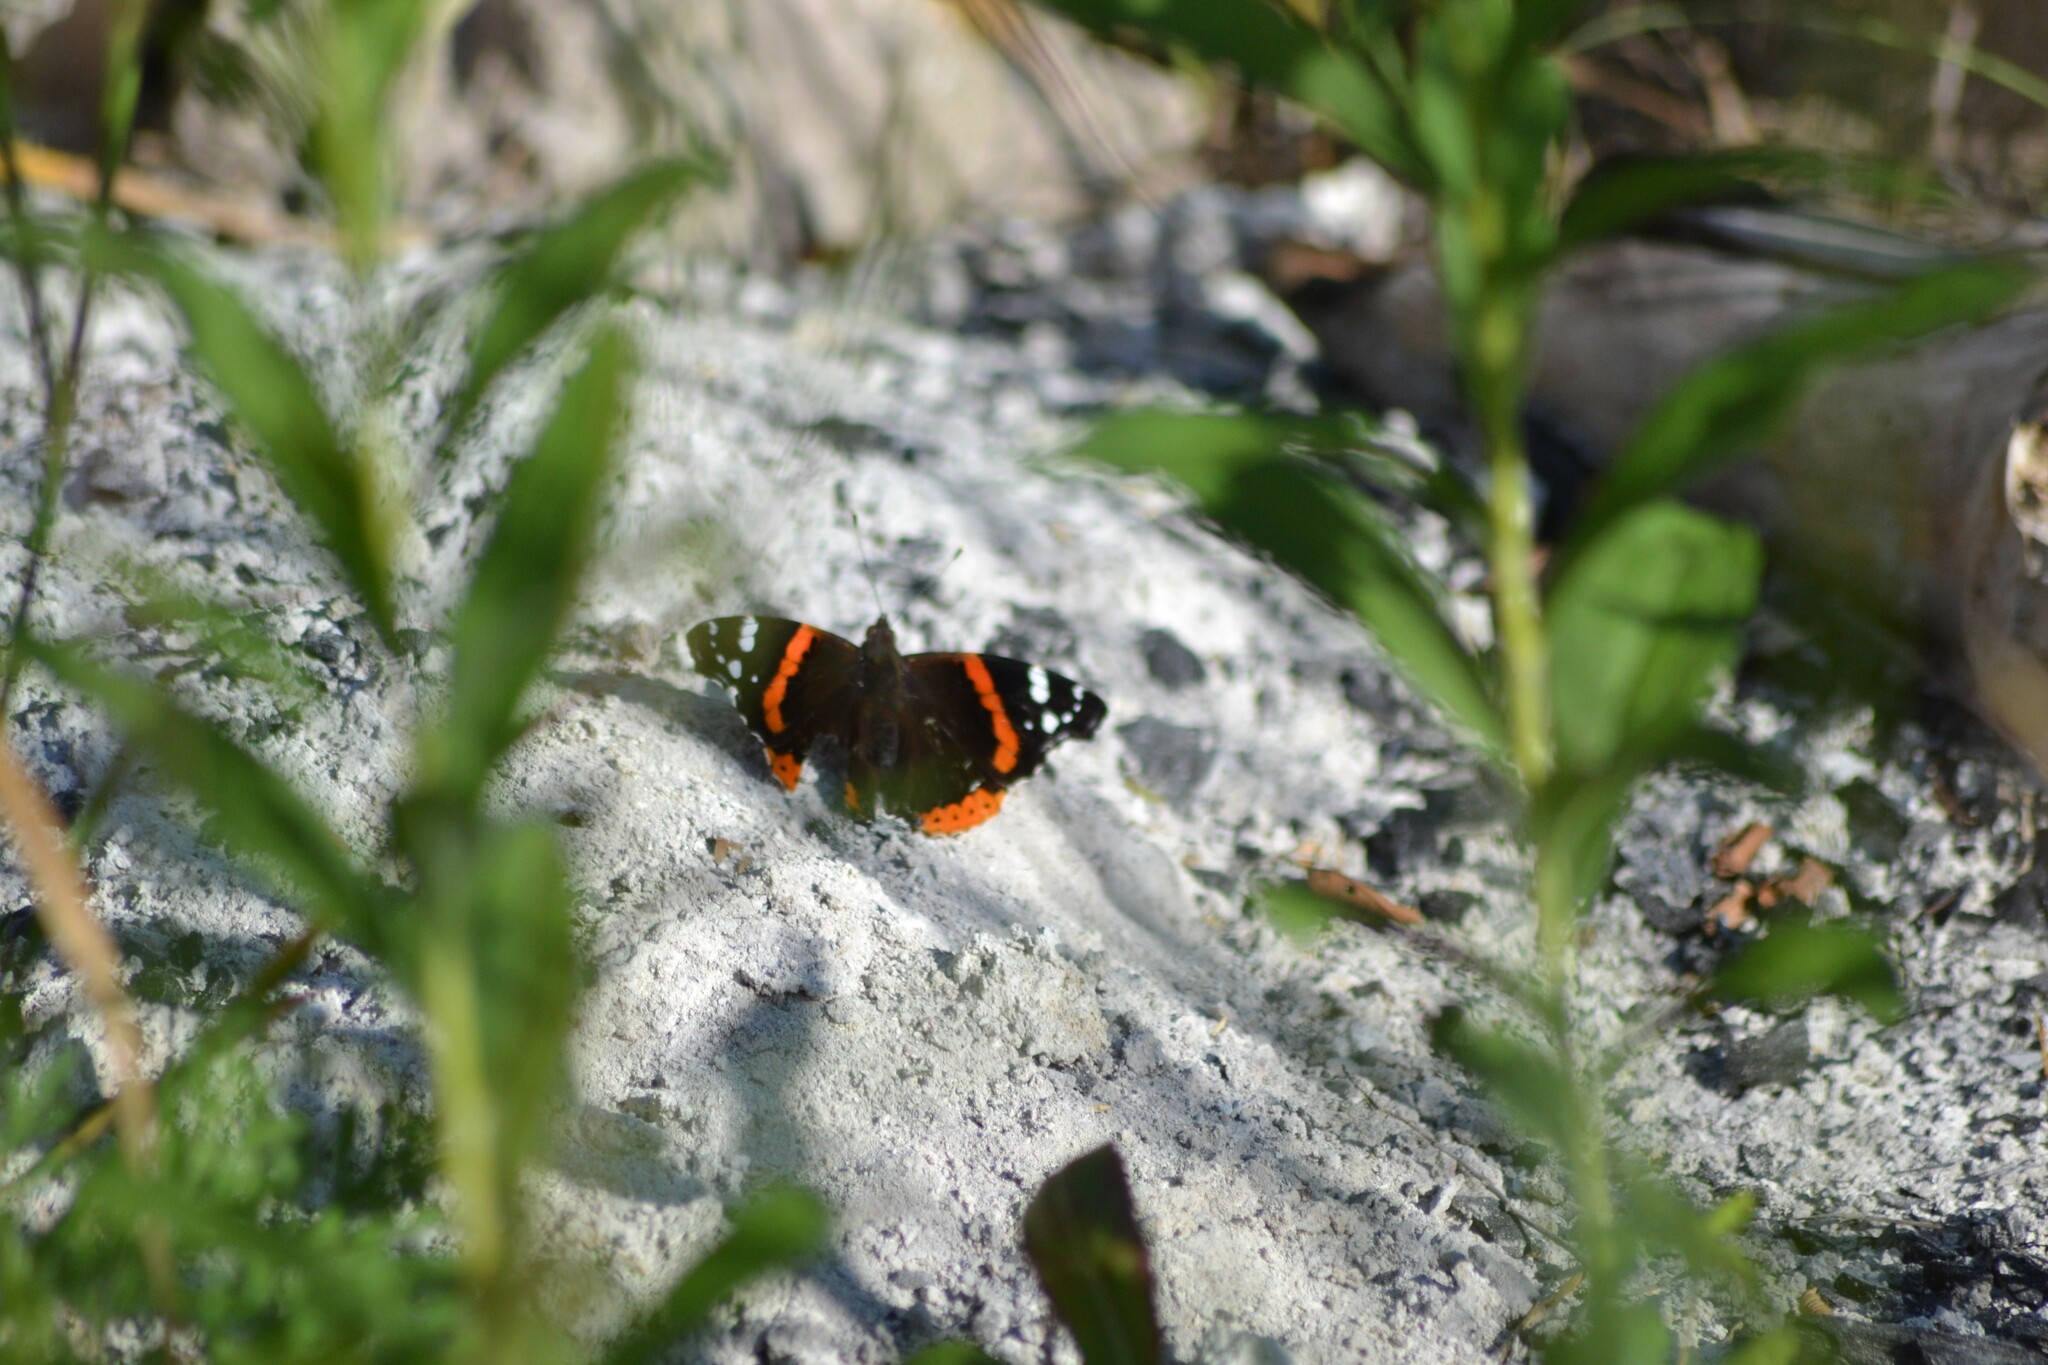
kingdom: Animalia
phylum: Arthropoda
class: Insecta
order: Lepidoptera
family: Nymphalidae
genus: Vanessa
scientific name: Vanessa atalanta
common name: Red admiral
